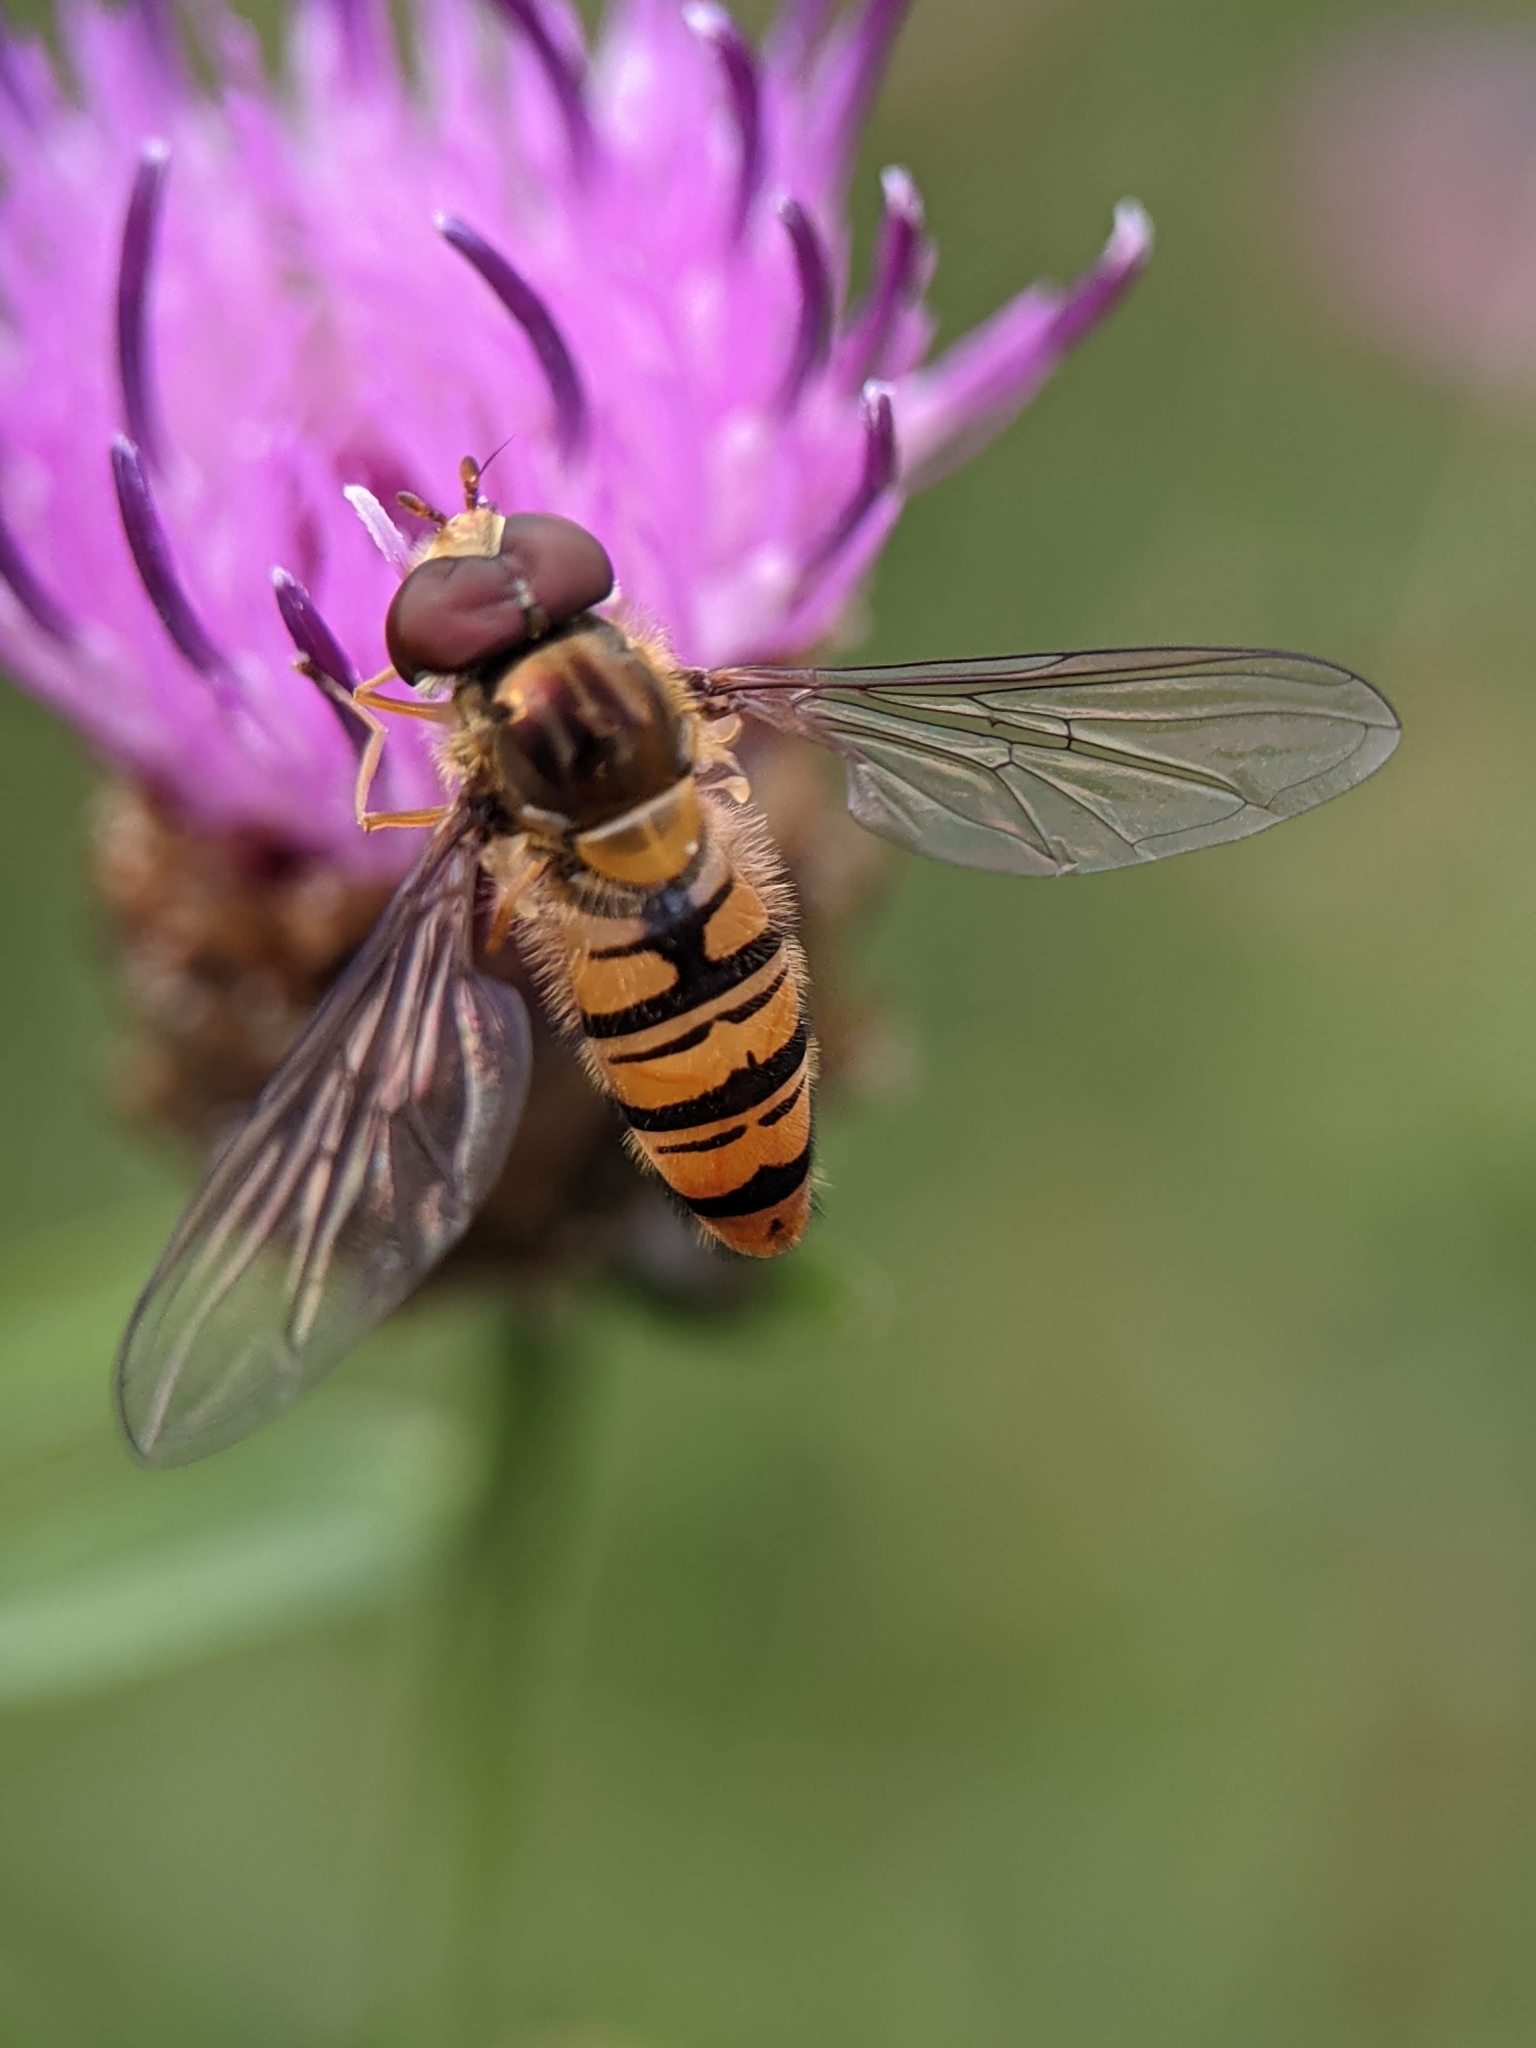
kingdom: Animalia
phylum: Arthropoda
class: Insecta
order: Diptera
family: Syrphidae
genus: Episyrphus
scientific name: Episyrphus balteatus
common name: Marmalade hoverfly
